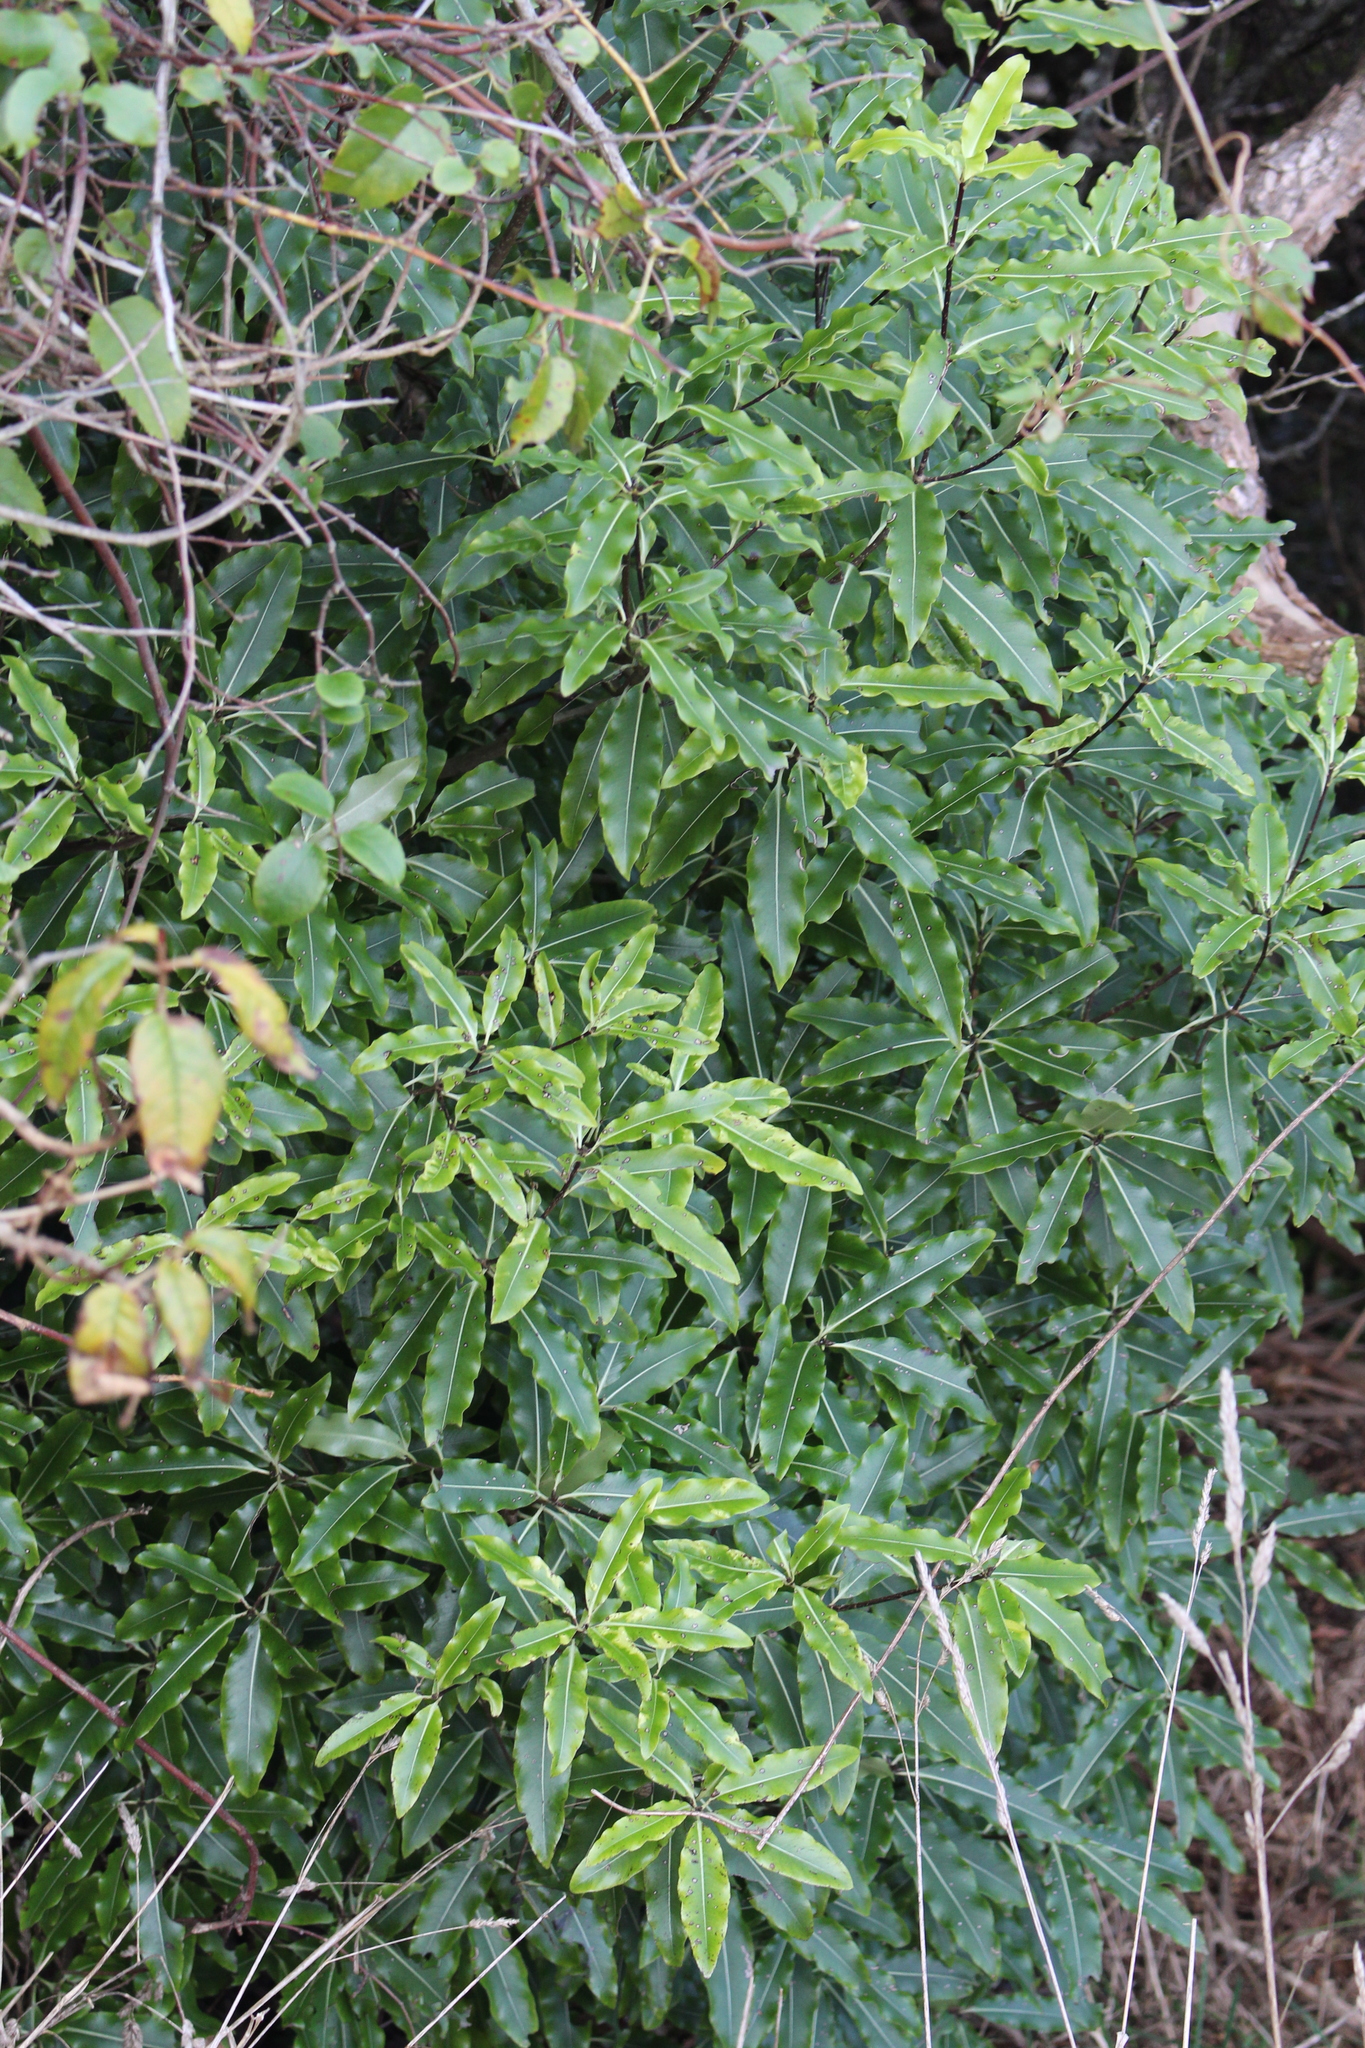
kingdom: Plantae
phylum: Tracheophyta
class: Magnoliopsida
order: Apiales
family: Pittosporaceae
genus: Pittosporum
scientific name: Pittosporum eugenioides
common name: Lemonwood
